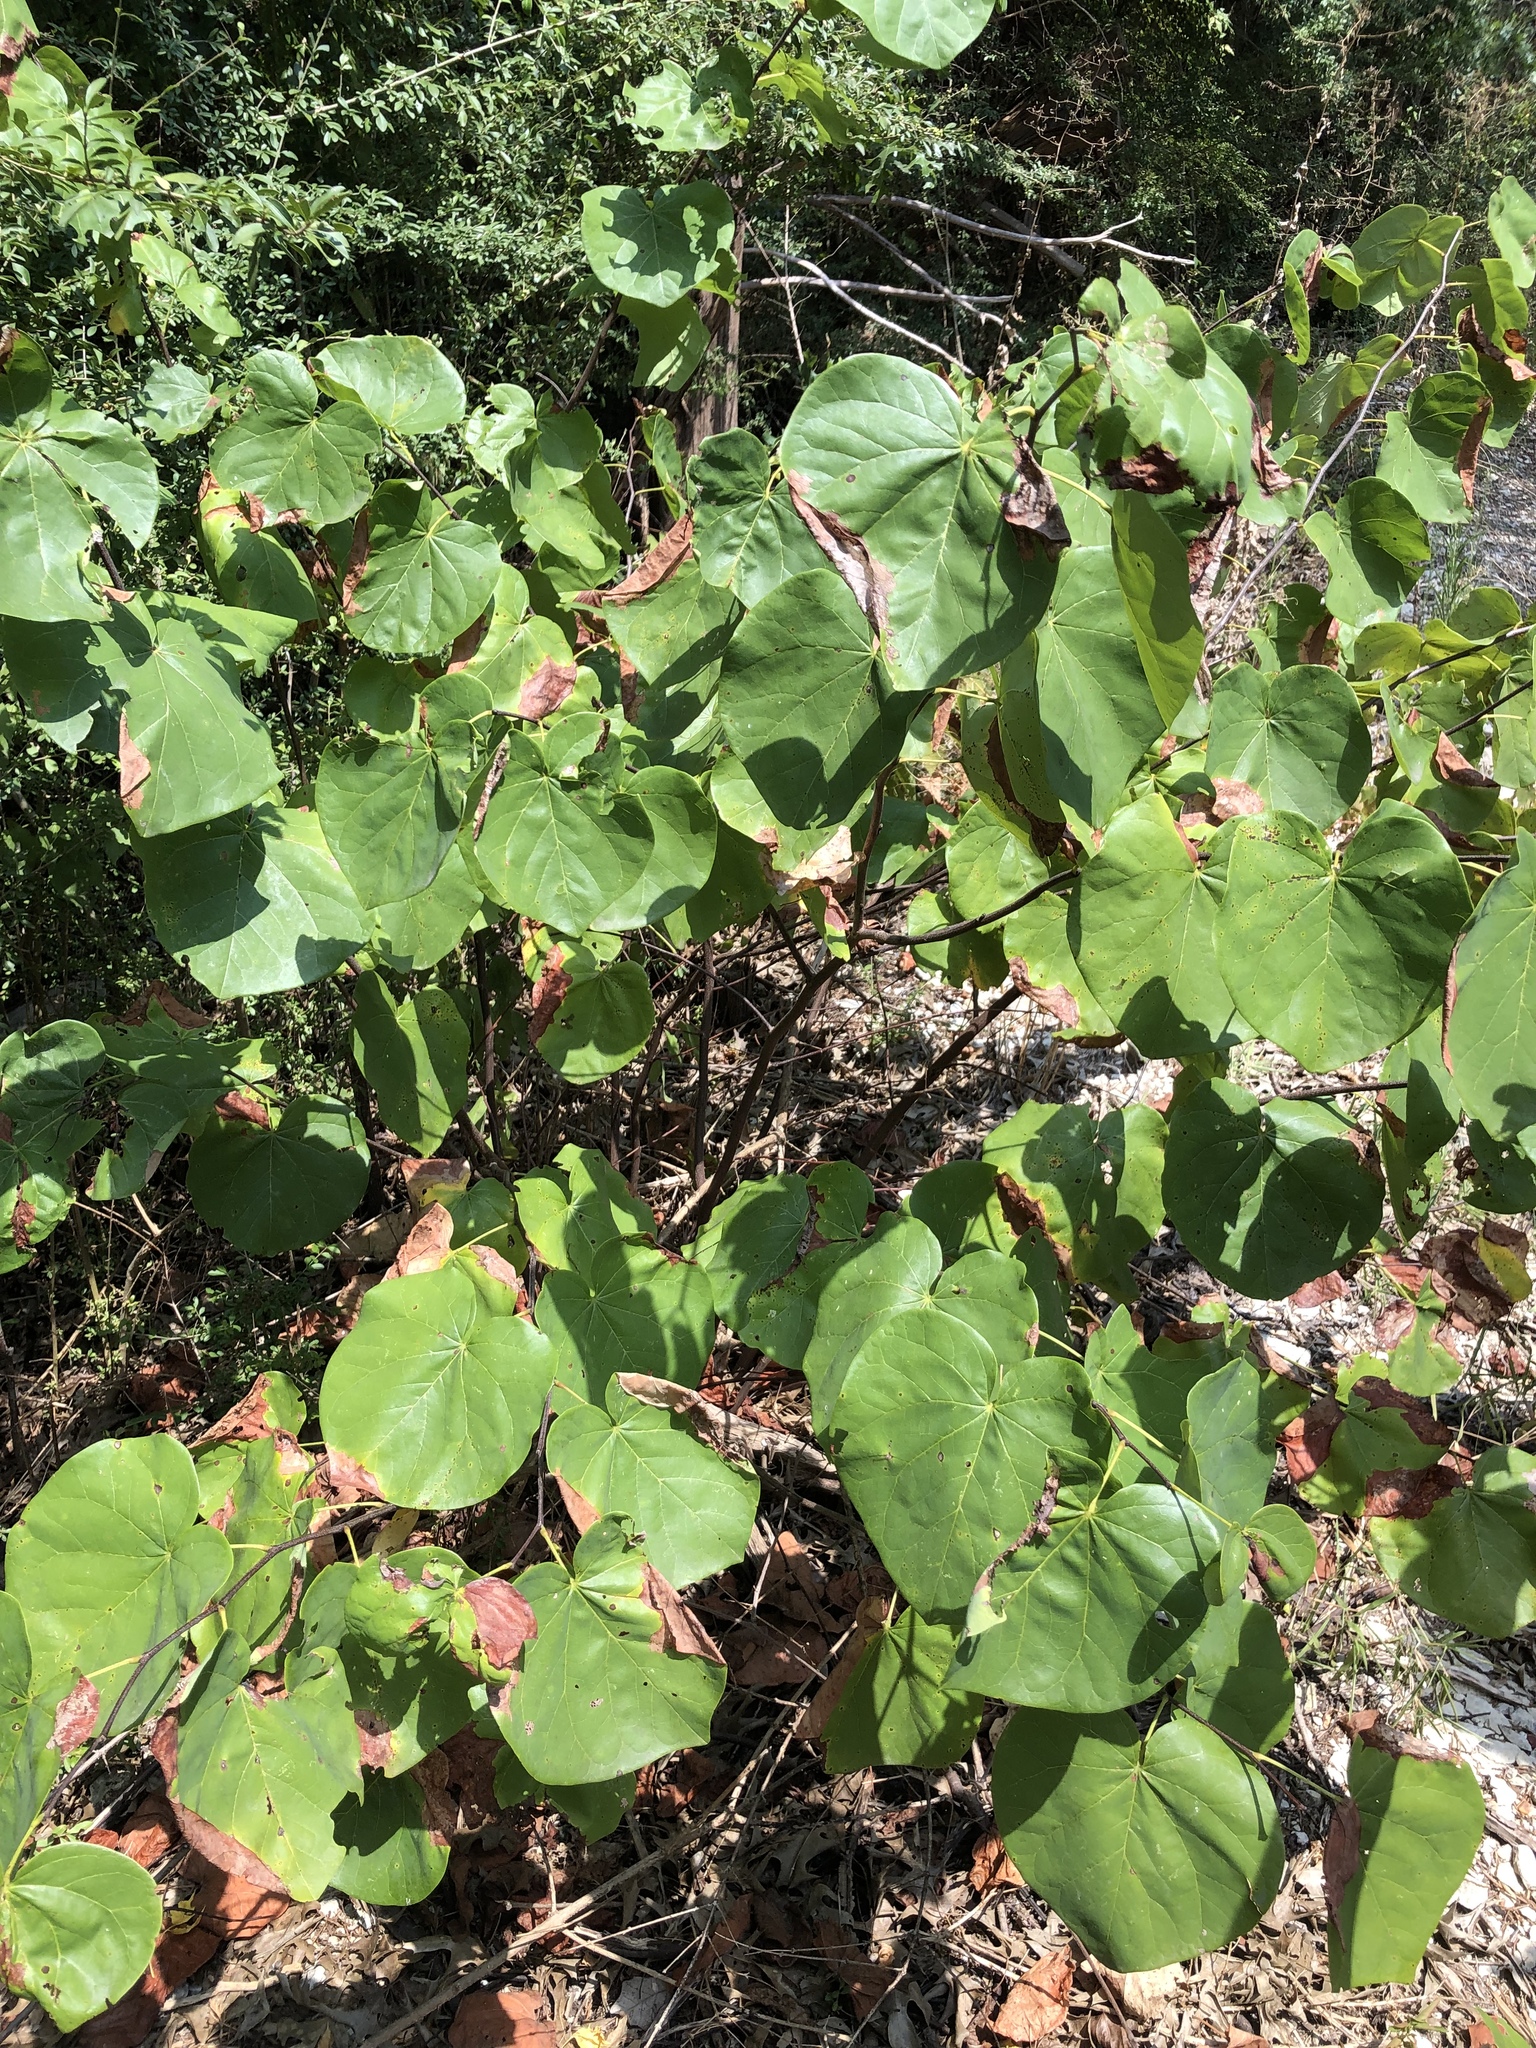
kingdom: Plantae
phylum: Tracheophyta
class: Magnoliopsida
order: Fabales
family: Fabaceae
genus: Cercis
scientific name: Cercis canadensis
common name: Eastern redbud
